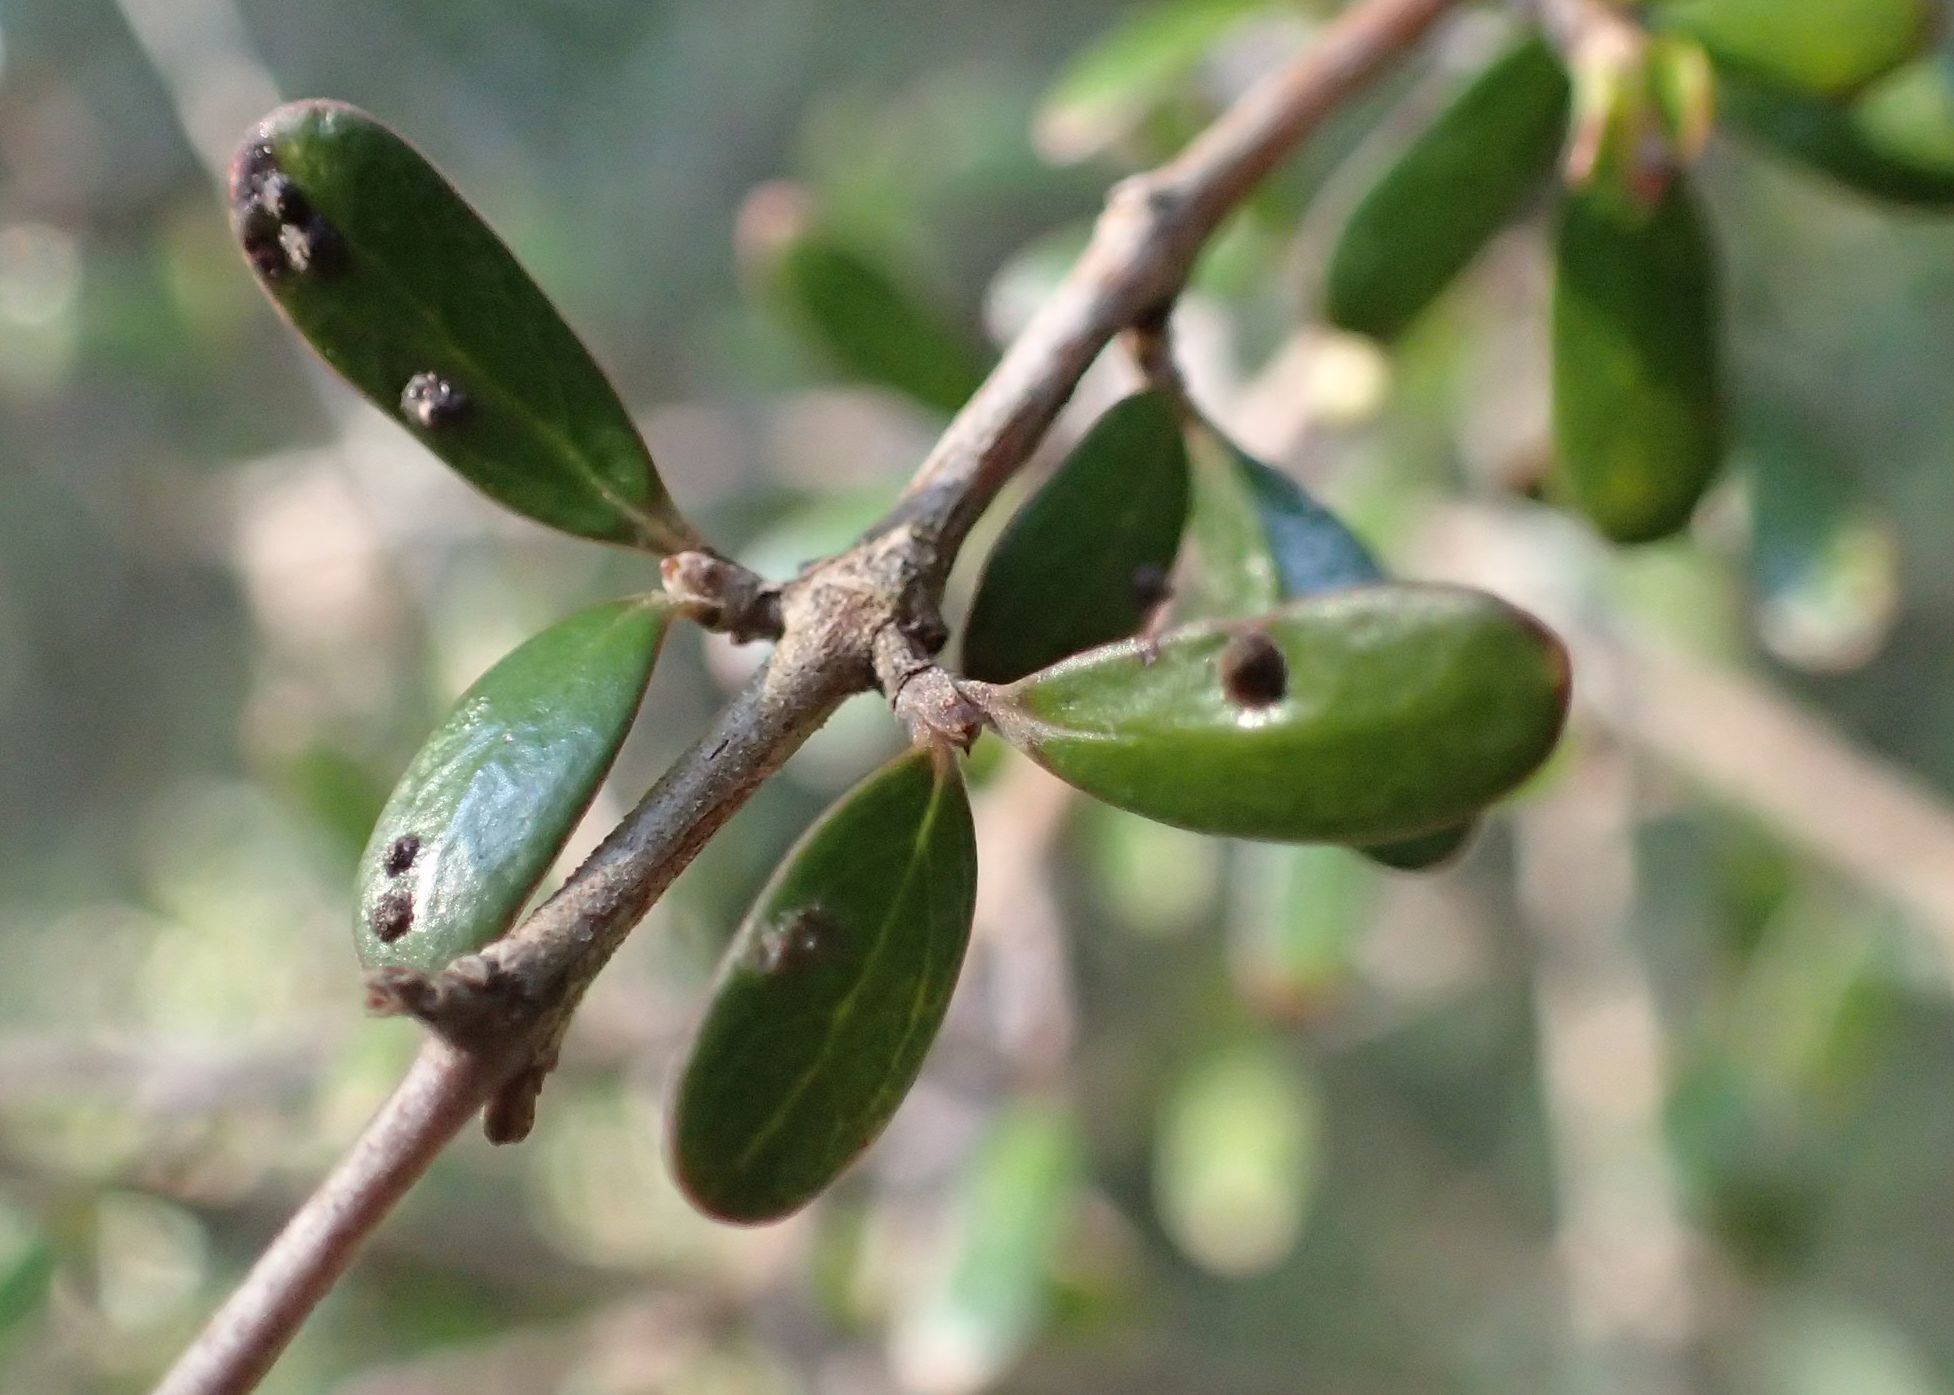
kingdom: Plantae
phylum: Tracheophyta
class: Magnoliopsida
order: Gentianales
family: Rubiaceae
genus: Coprosma
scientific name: Coprosma propinqua
